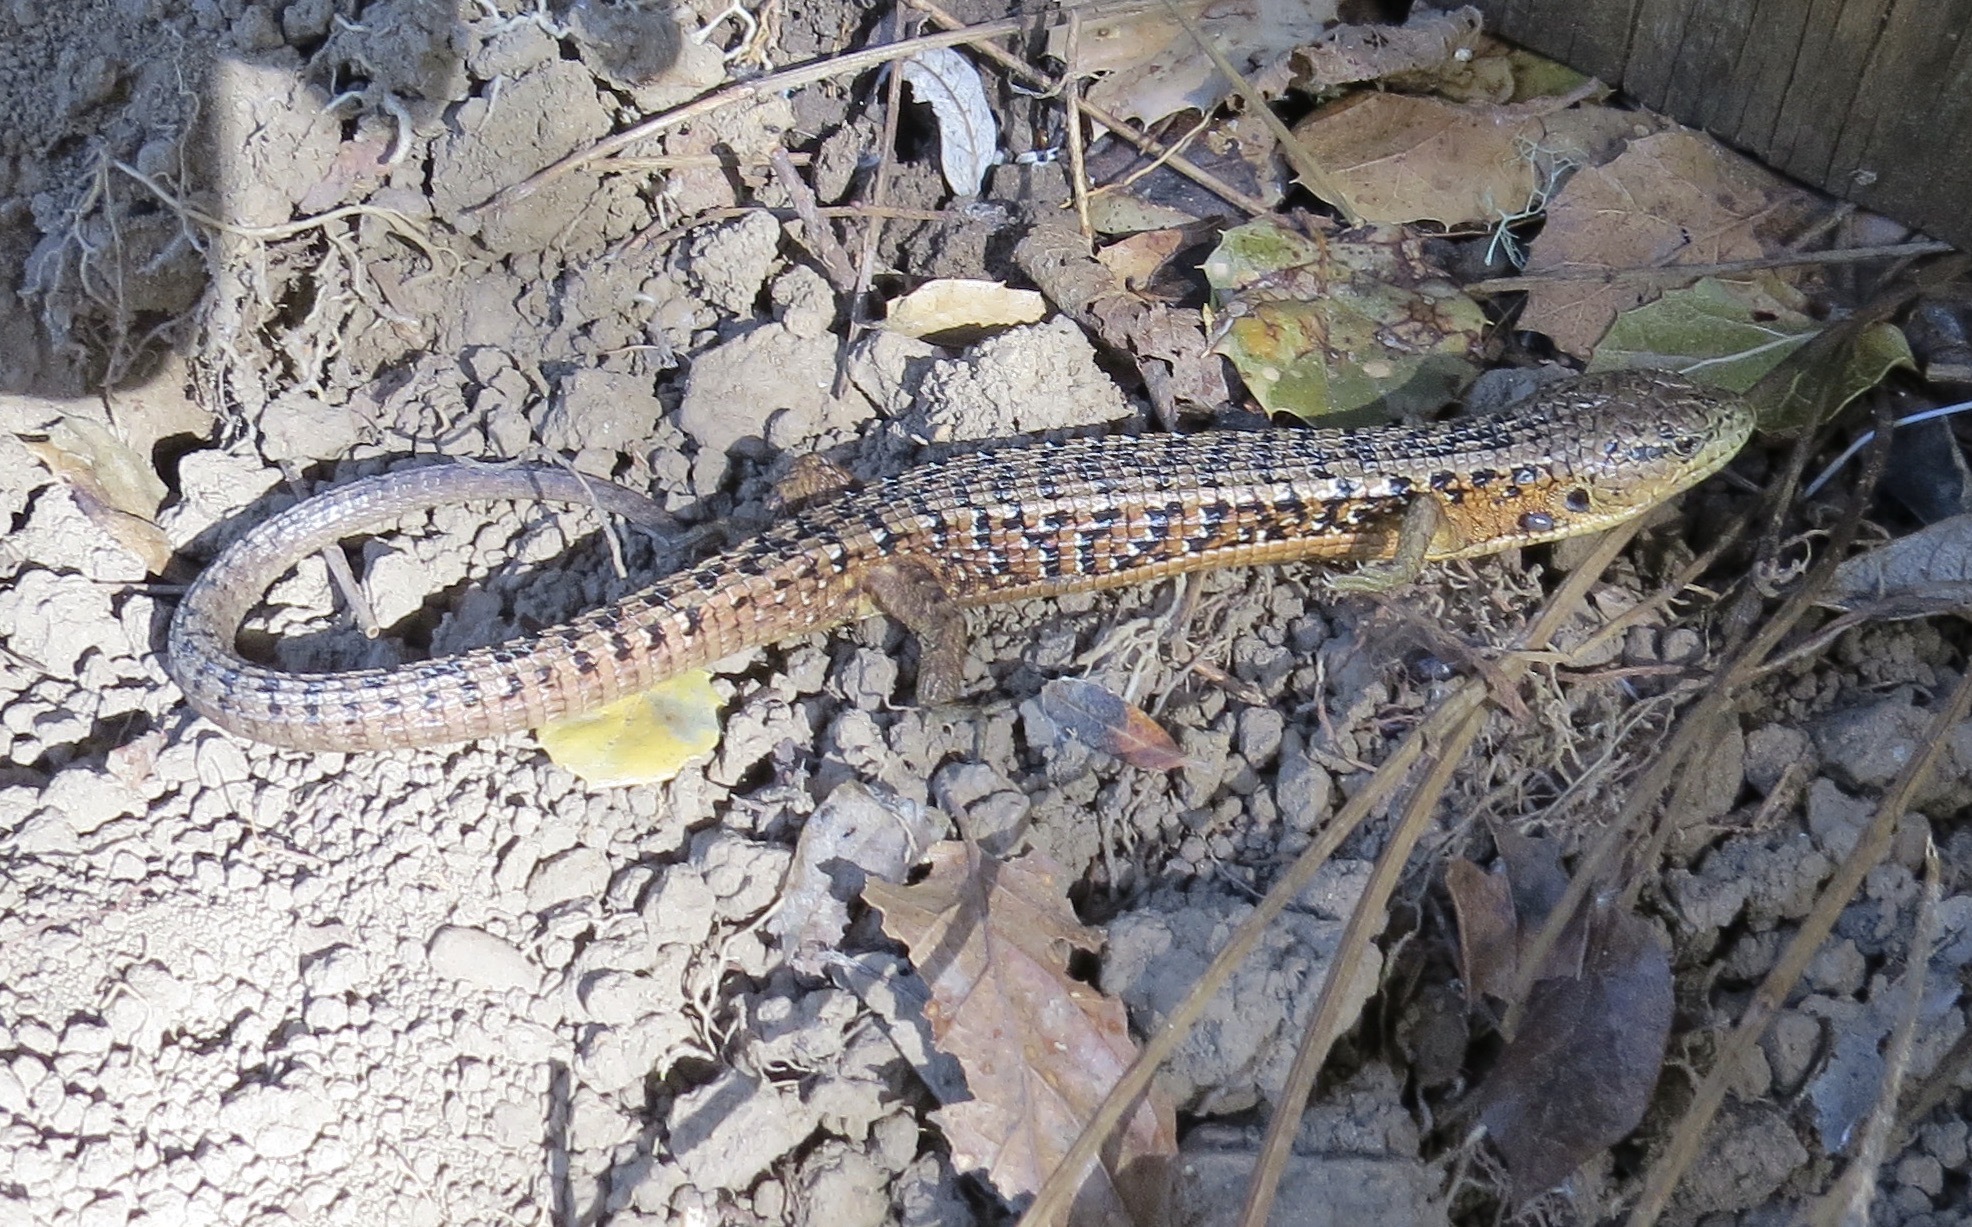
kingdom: Animalia
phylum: Chordata
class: Squamata
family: Anguidae
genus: Elgaria
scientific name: Elgaria coerulea
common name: Northern alligator lizard
